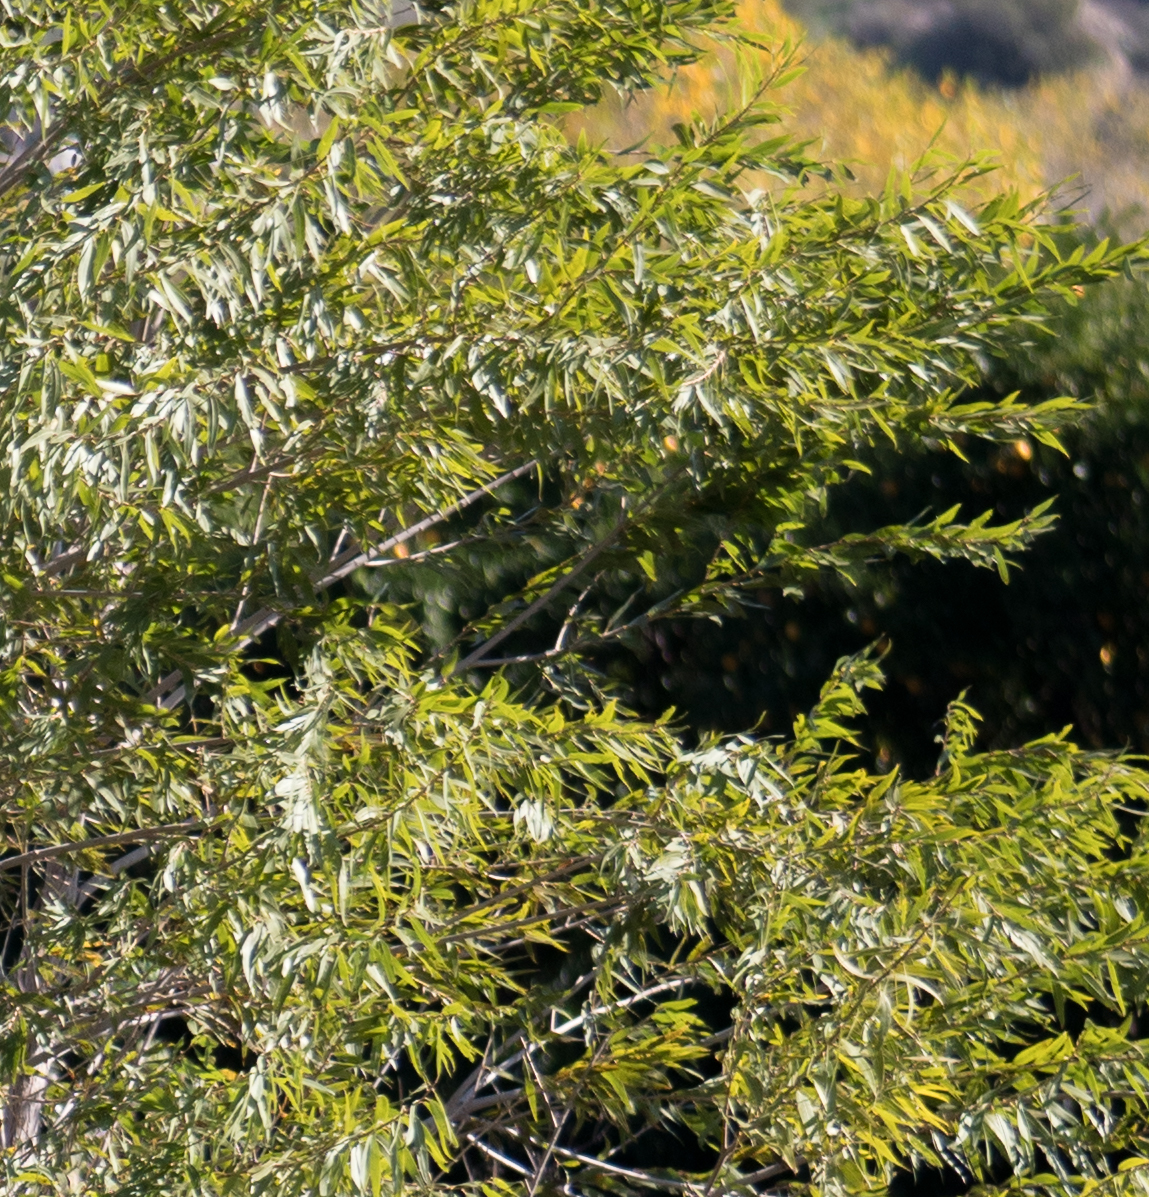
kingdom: Plantae
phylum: Tracheophyta
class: Magnoliopsida
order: Malpighiales
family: Salicaceae
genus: Salix
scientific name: Salix gooddingii
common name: Goodding's willow
